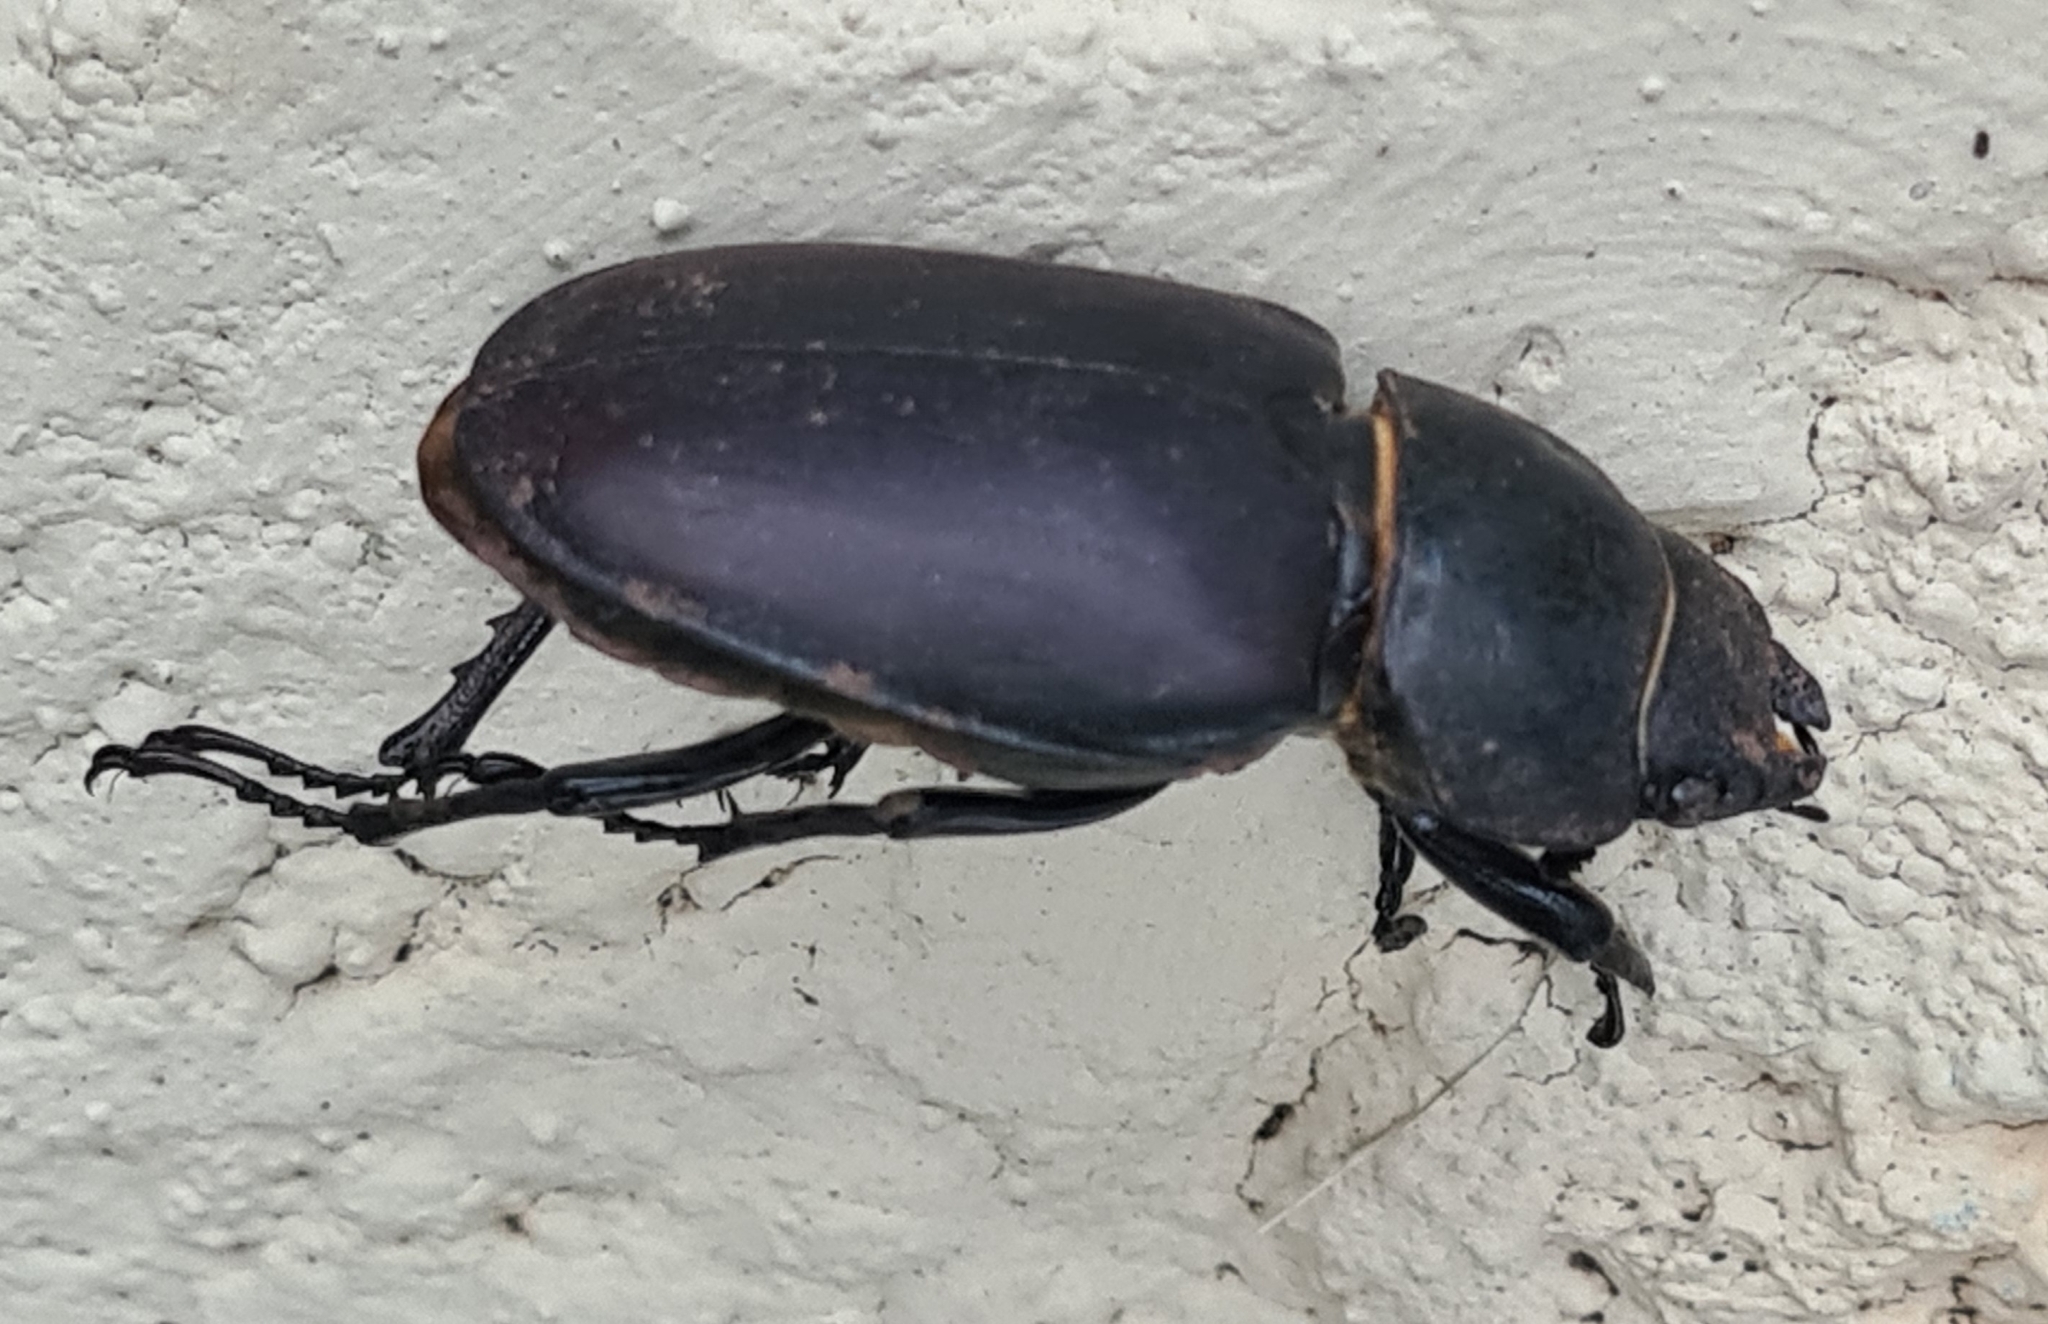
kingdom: Animalia
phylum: Arthropoda
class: Insecta
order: Coleoptera
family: Lucanidae
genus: Lucanus
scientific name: Lucanus cervus
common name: Stag beetle
